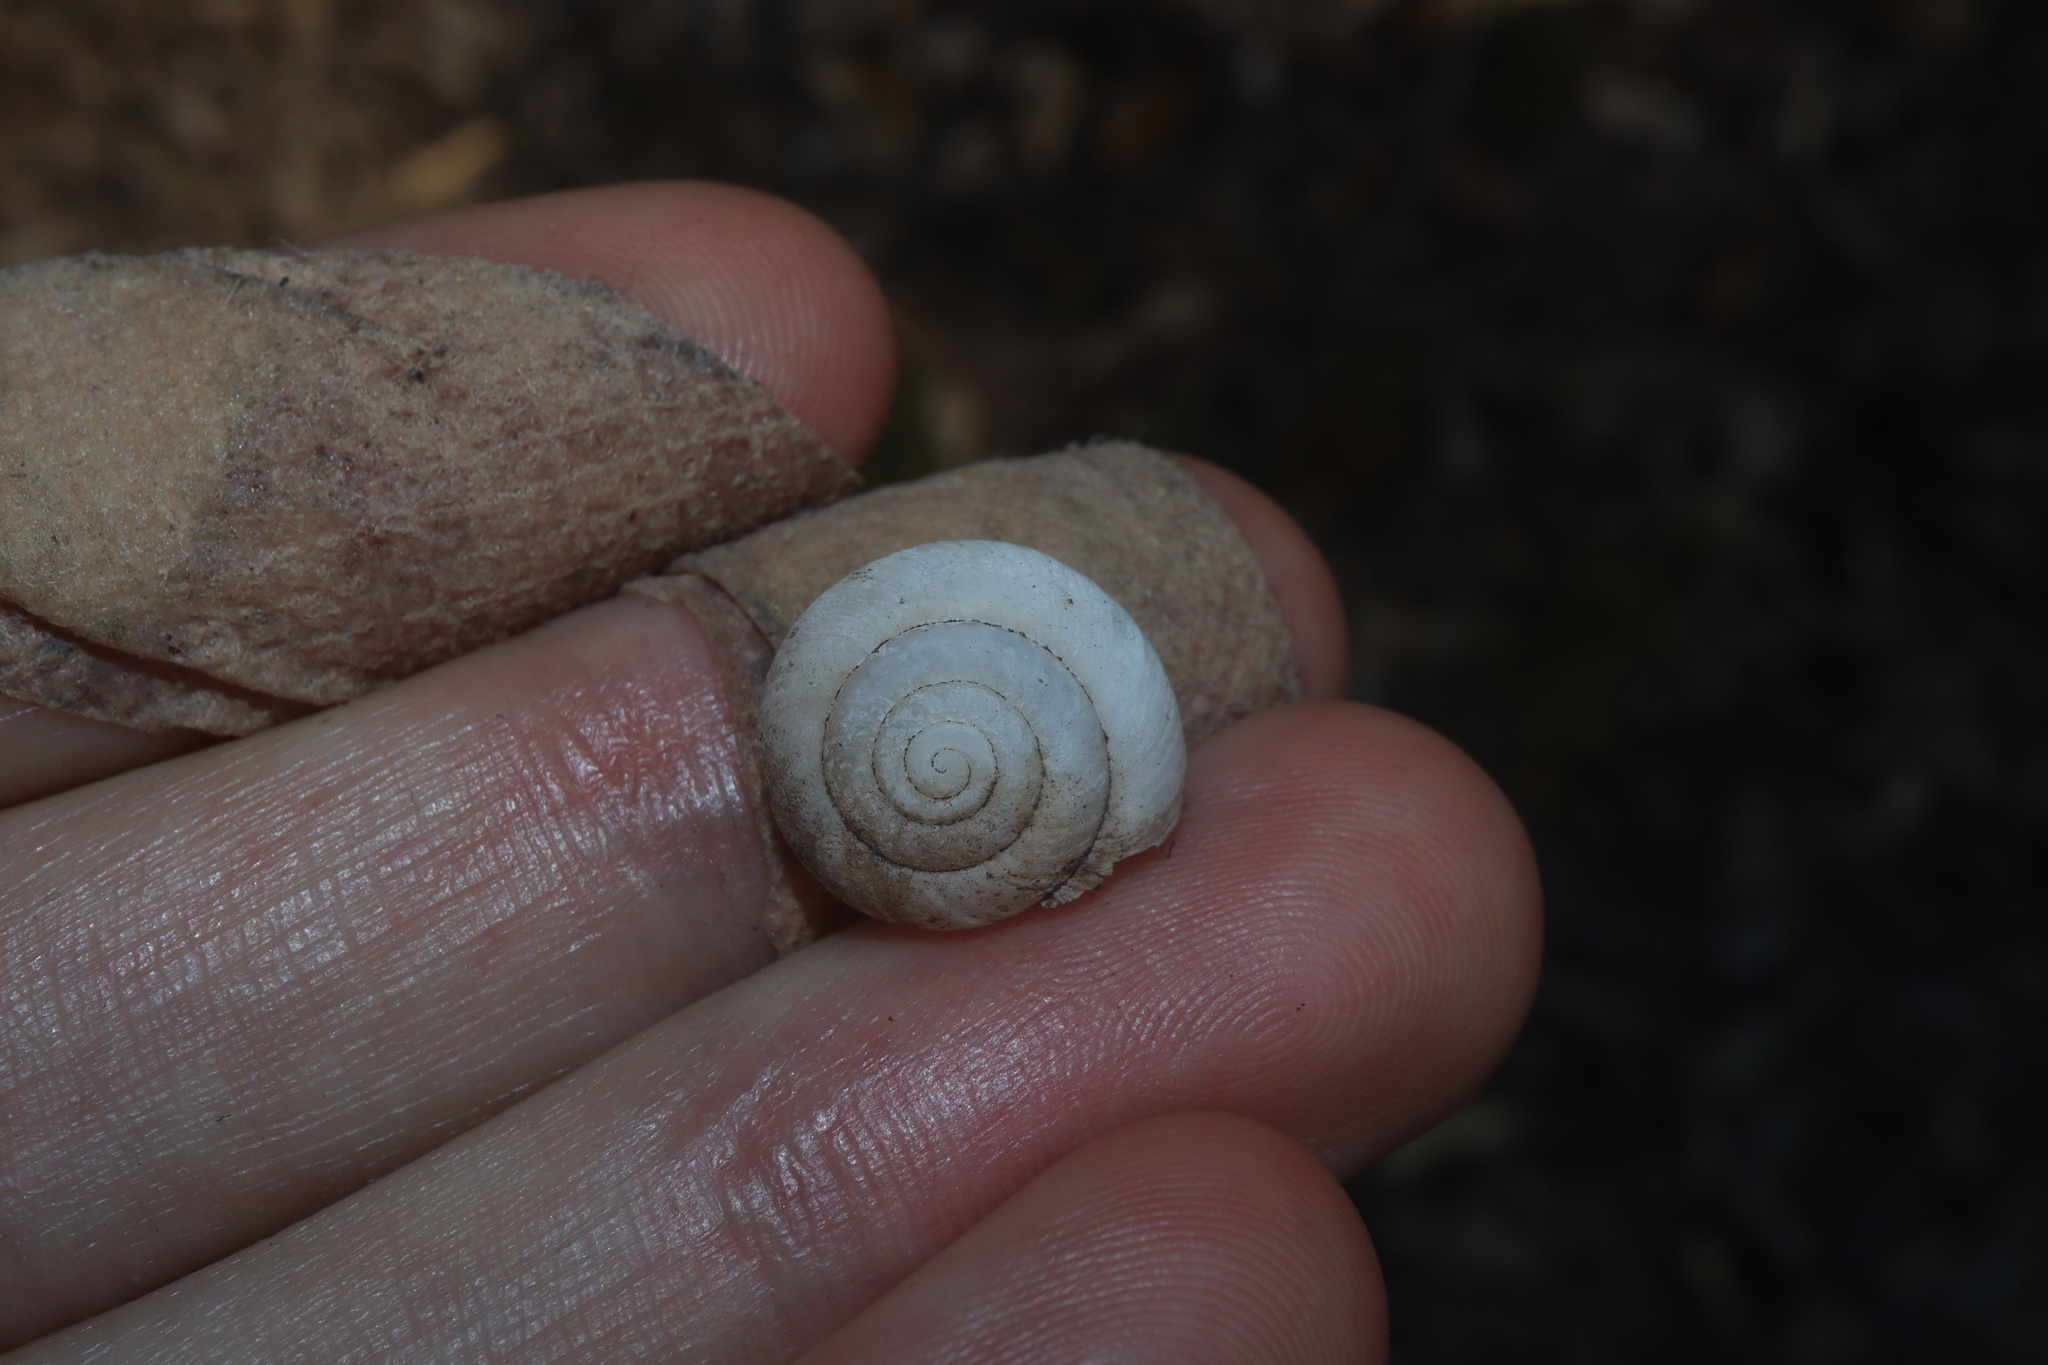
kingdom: Animalia
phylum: Mollusca
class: Gastropoda
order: Stylommatophora
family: Camaenidae
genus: Sauroconcha
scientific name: Sauroconcha sheai
